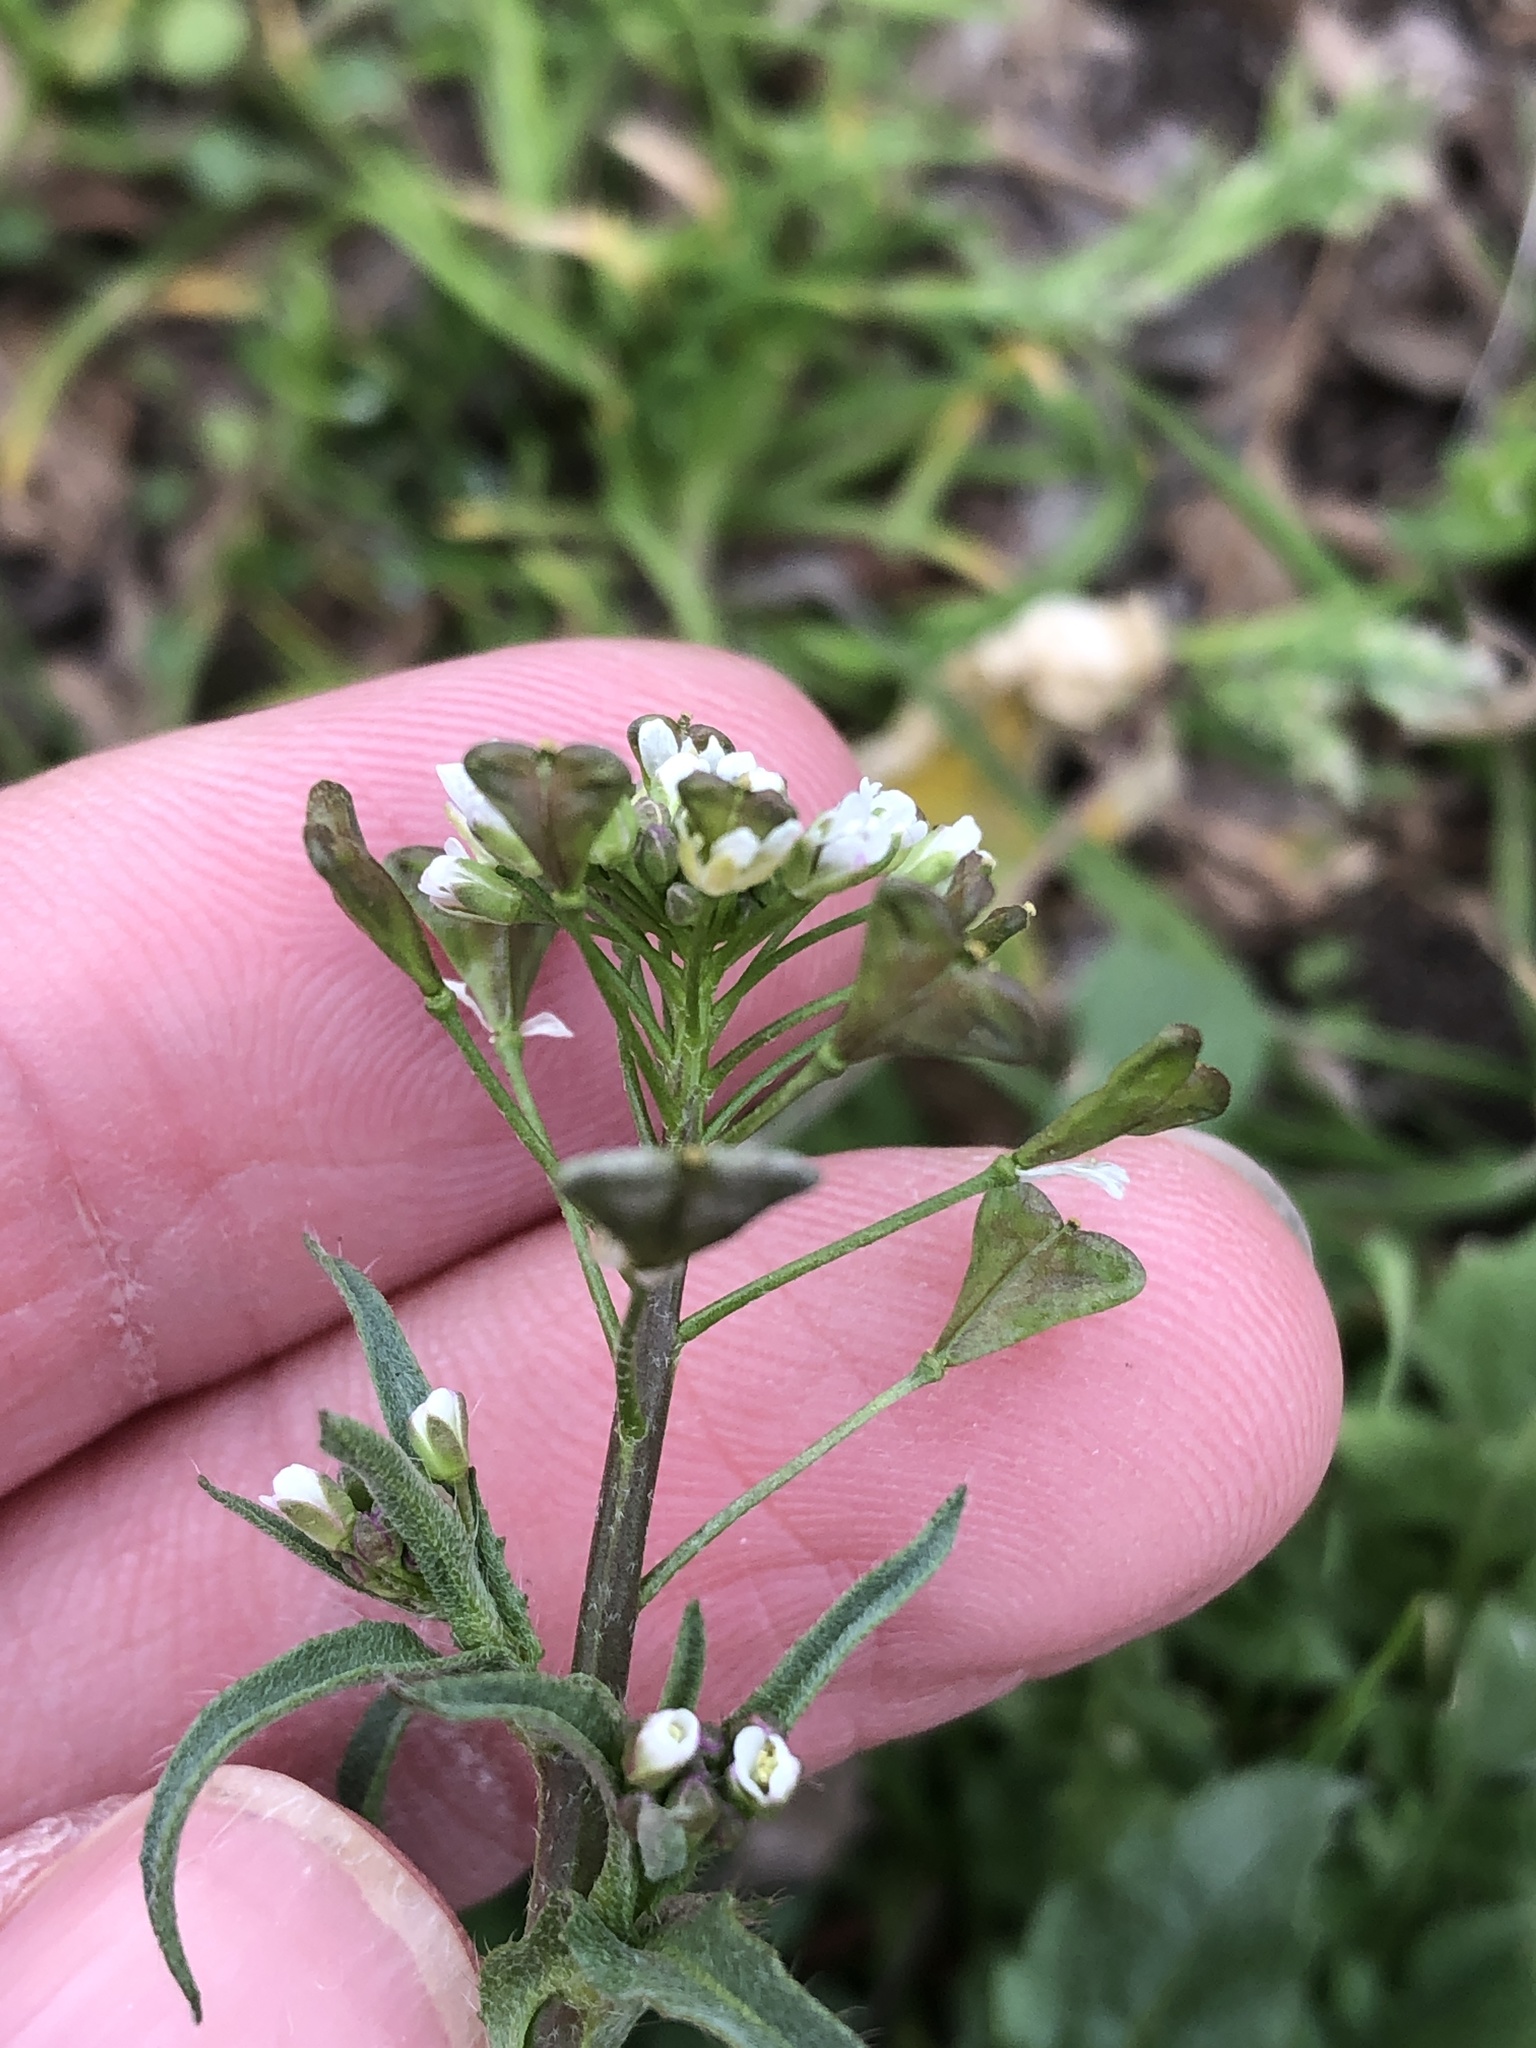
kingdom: Plantae
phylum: Tracheophyta
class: Magnoliopsida
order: Brassicales
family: Brassicaceae
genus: Capsella
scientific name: Capsella bursa-pastoris
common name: Shepherd's purse
